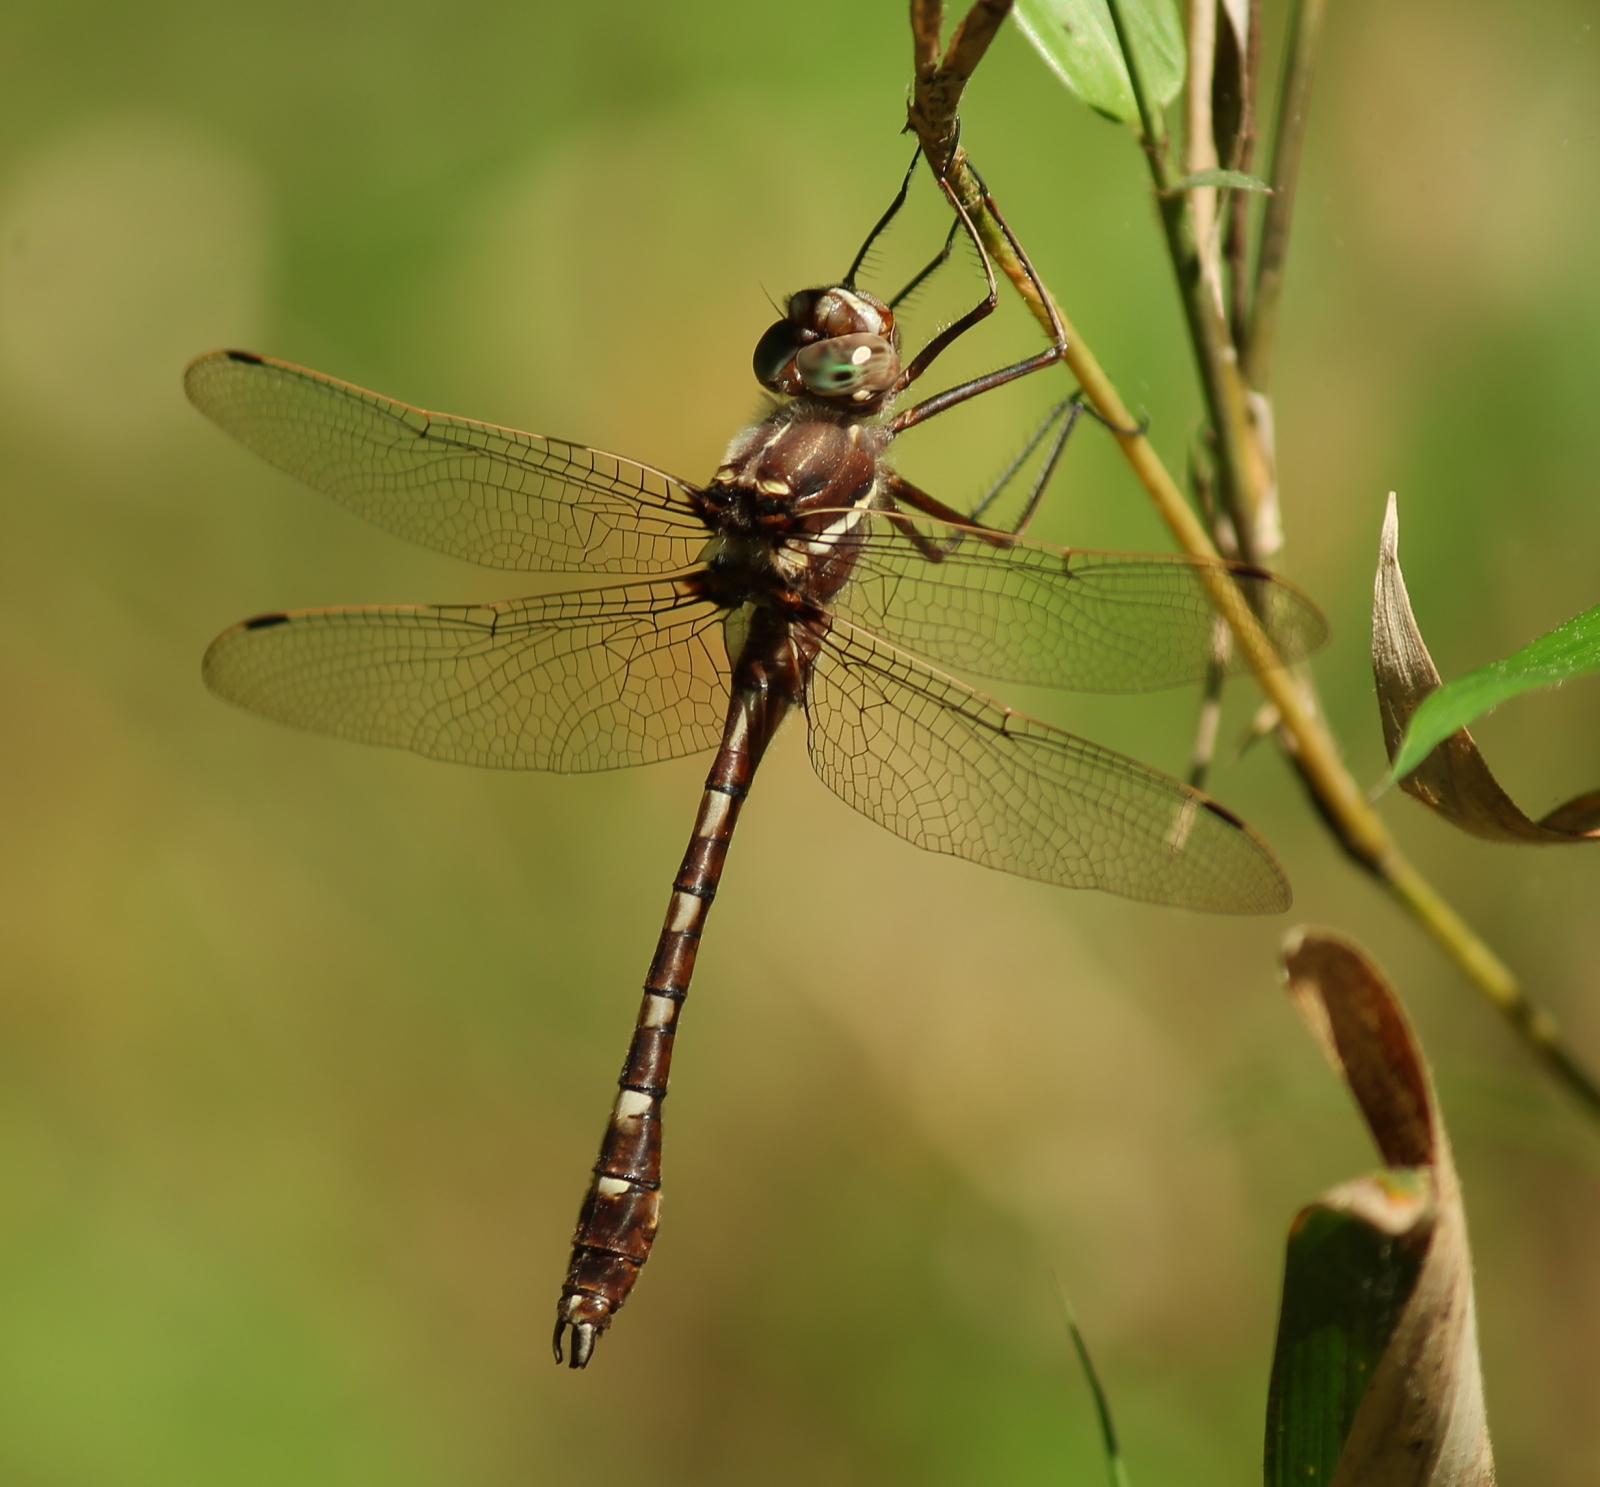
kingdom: Animalia
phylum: Arthropoda
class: Insecta
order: Odonata
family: Macromiidae
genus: Didymops
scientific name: Didymops transversa
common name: Stream cruiser
